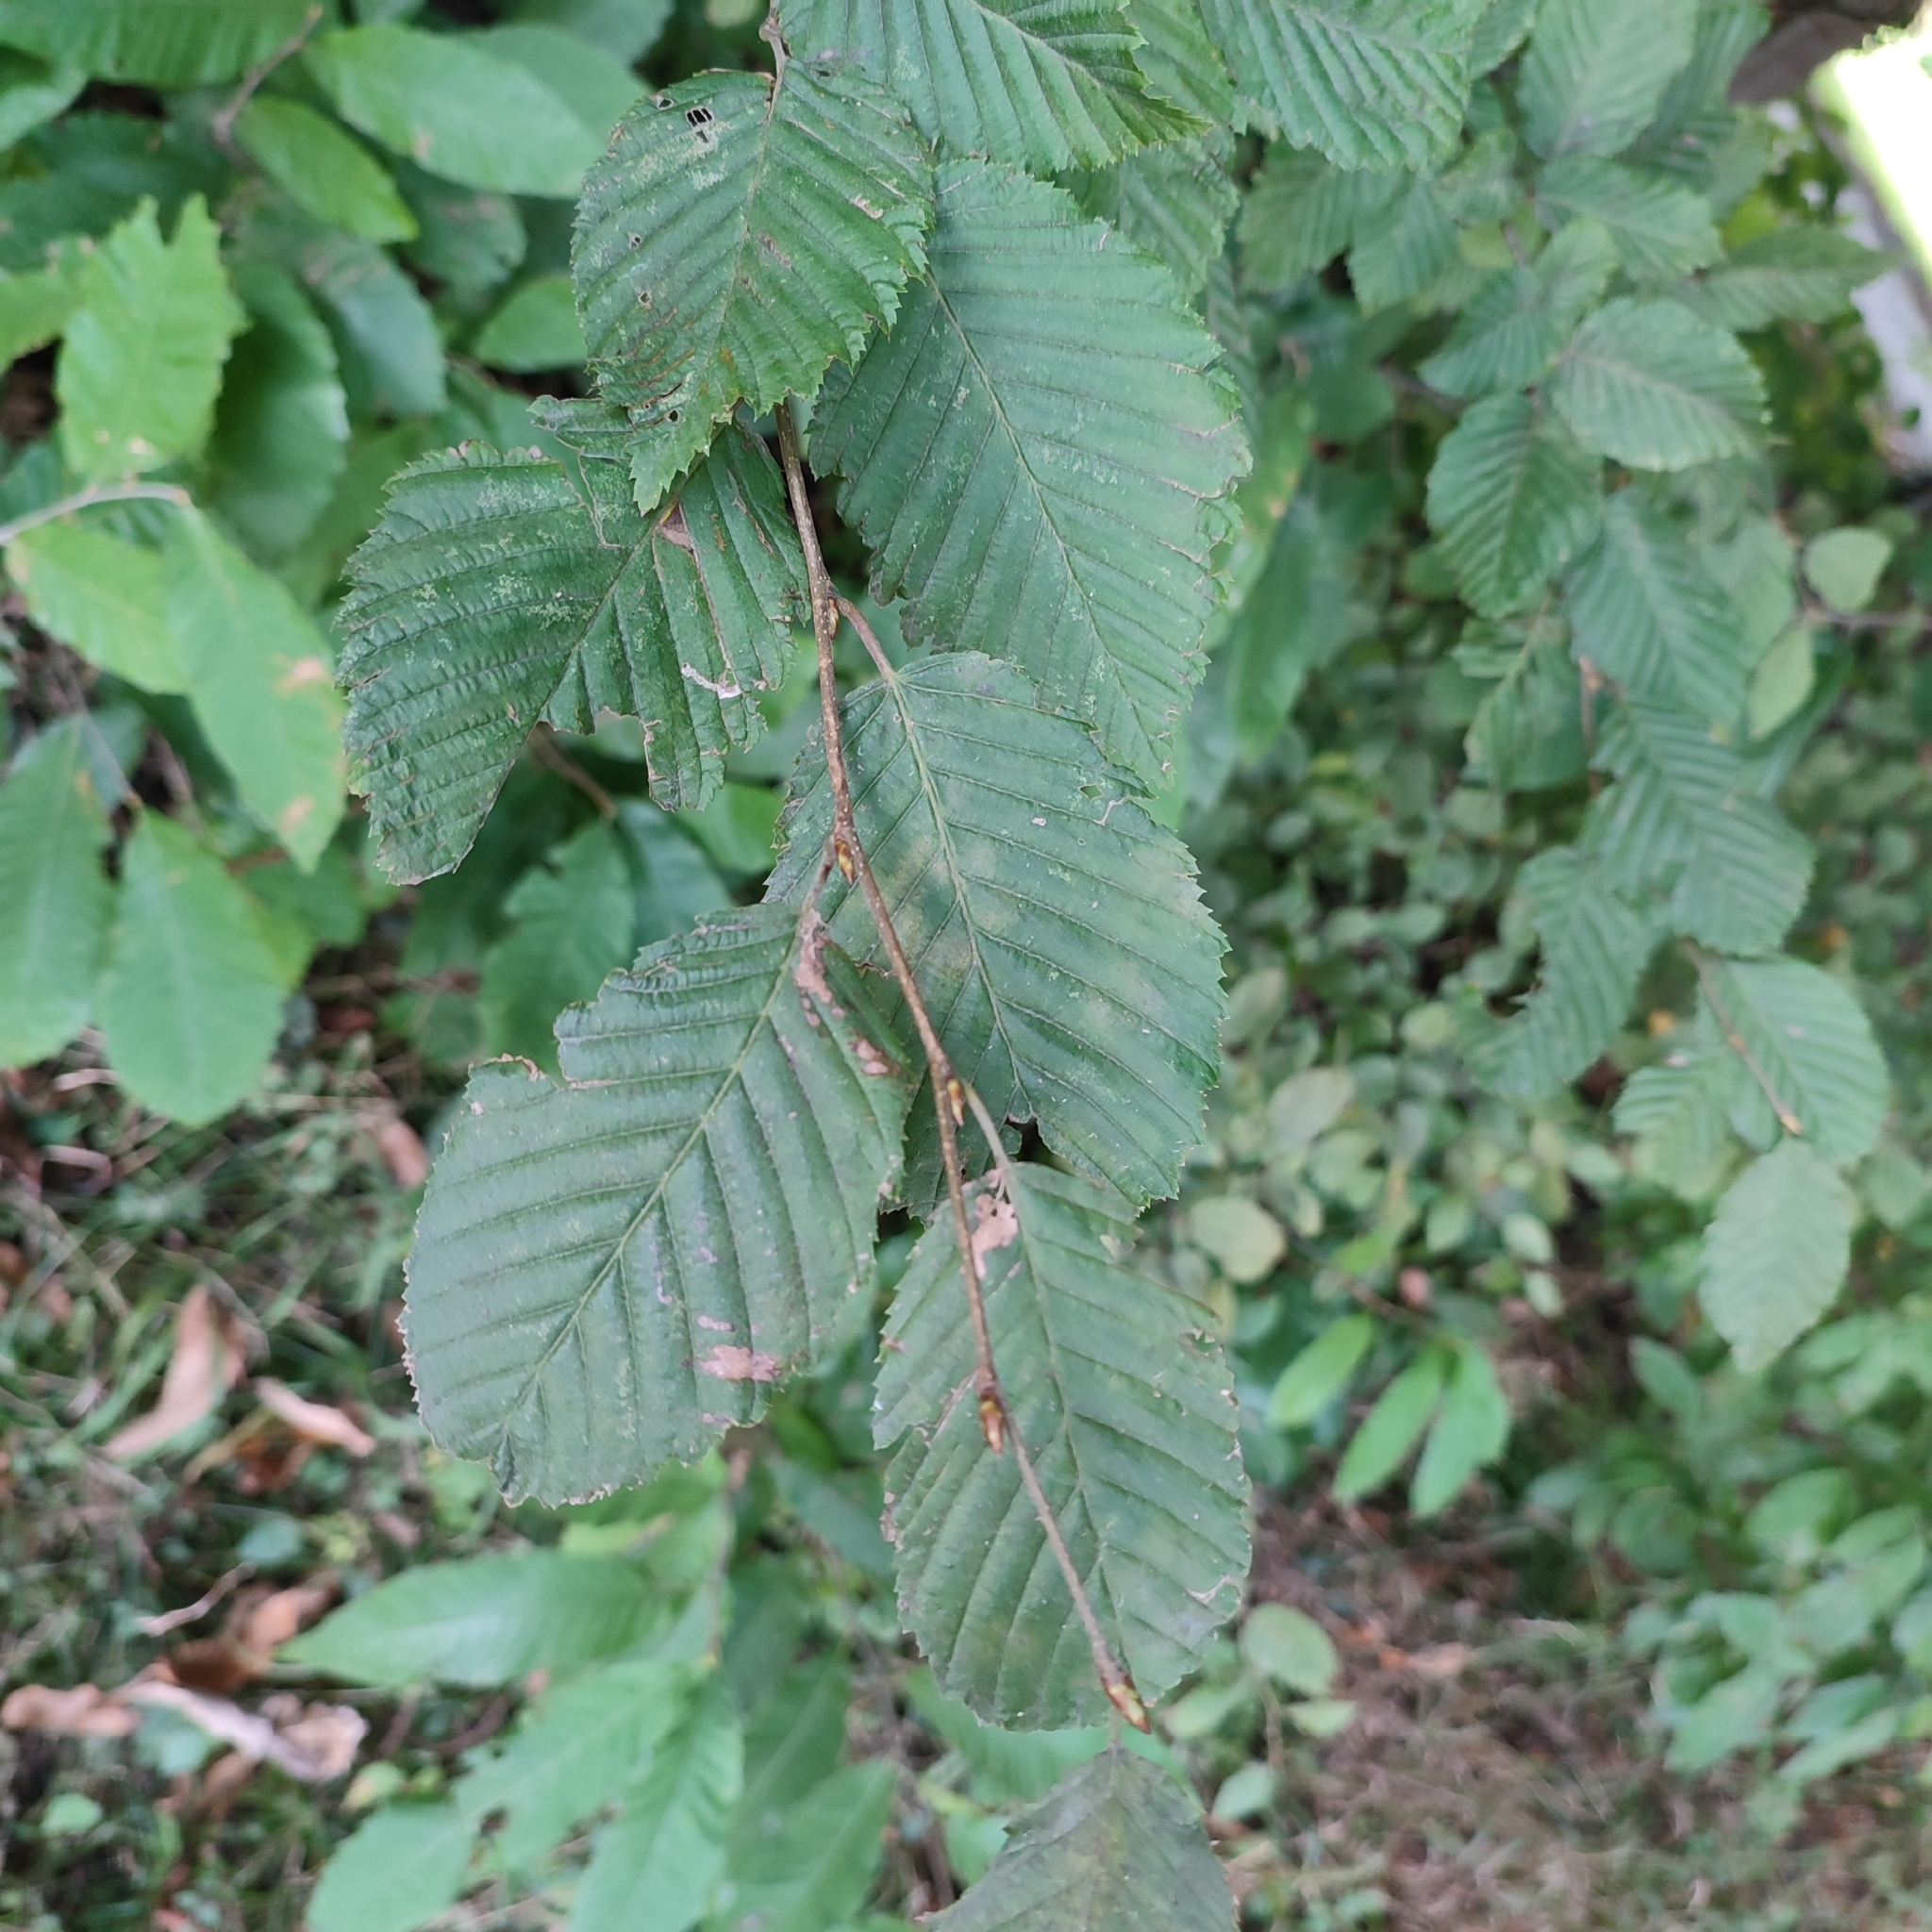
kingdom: Plantae
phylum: Tracheophyta
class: Magnoliopsida
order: Fagales
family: Betulaceae
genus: Carpinus
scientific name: Carpinus betulus
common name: Hornbeam
